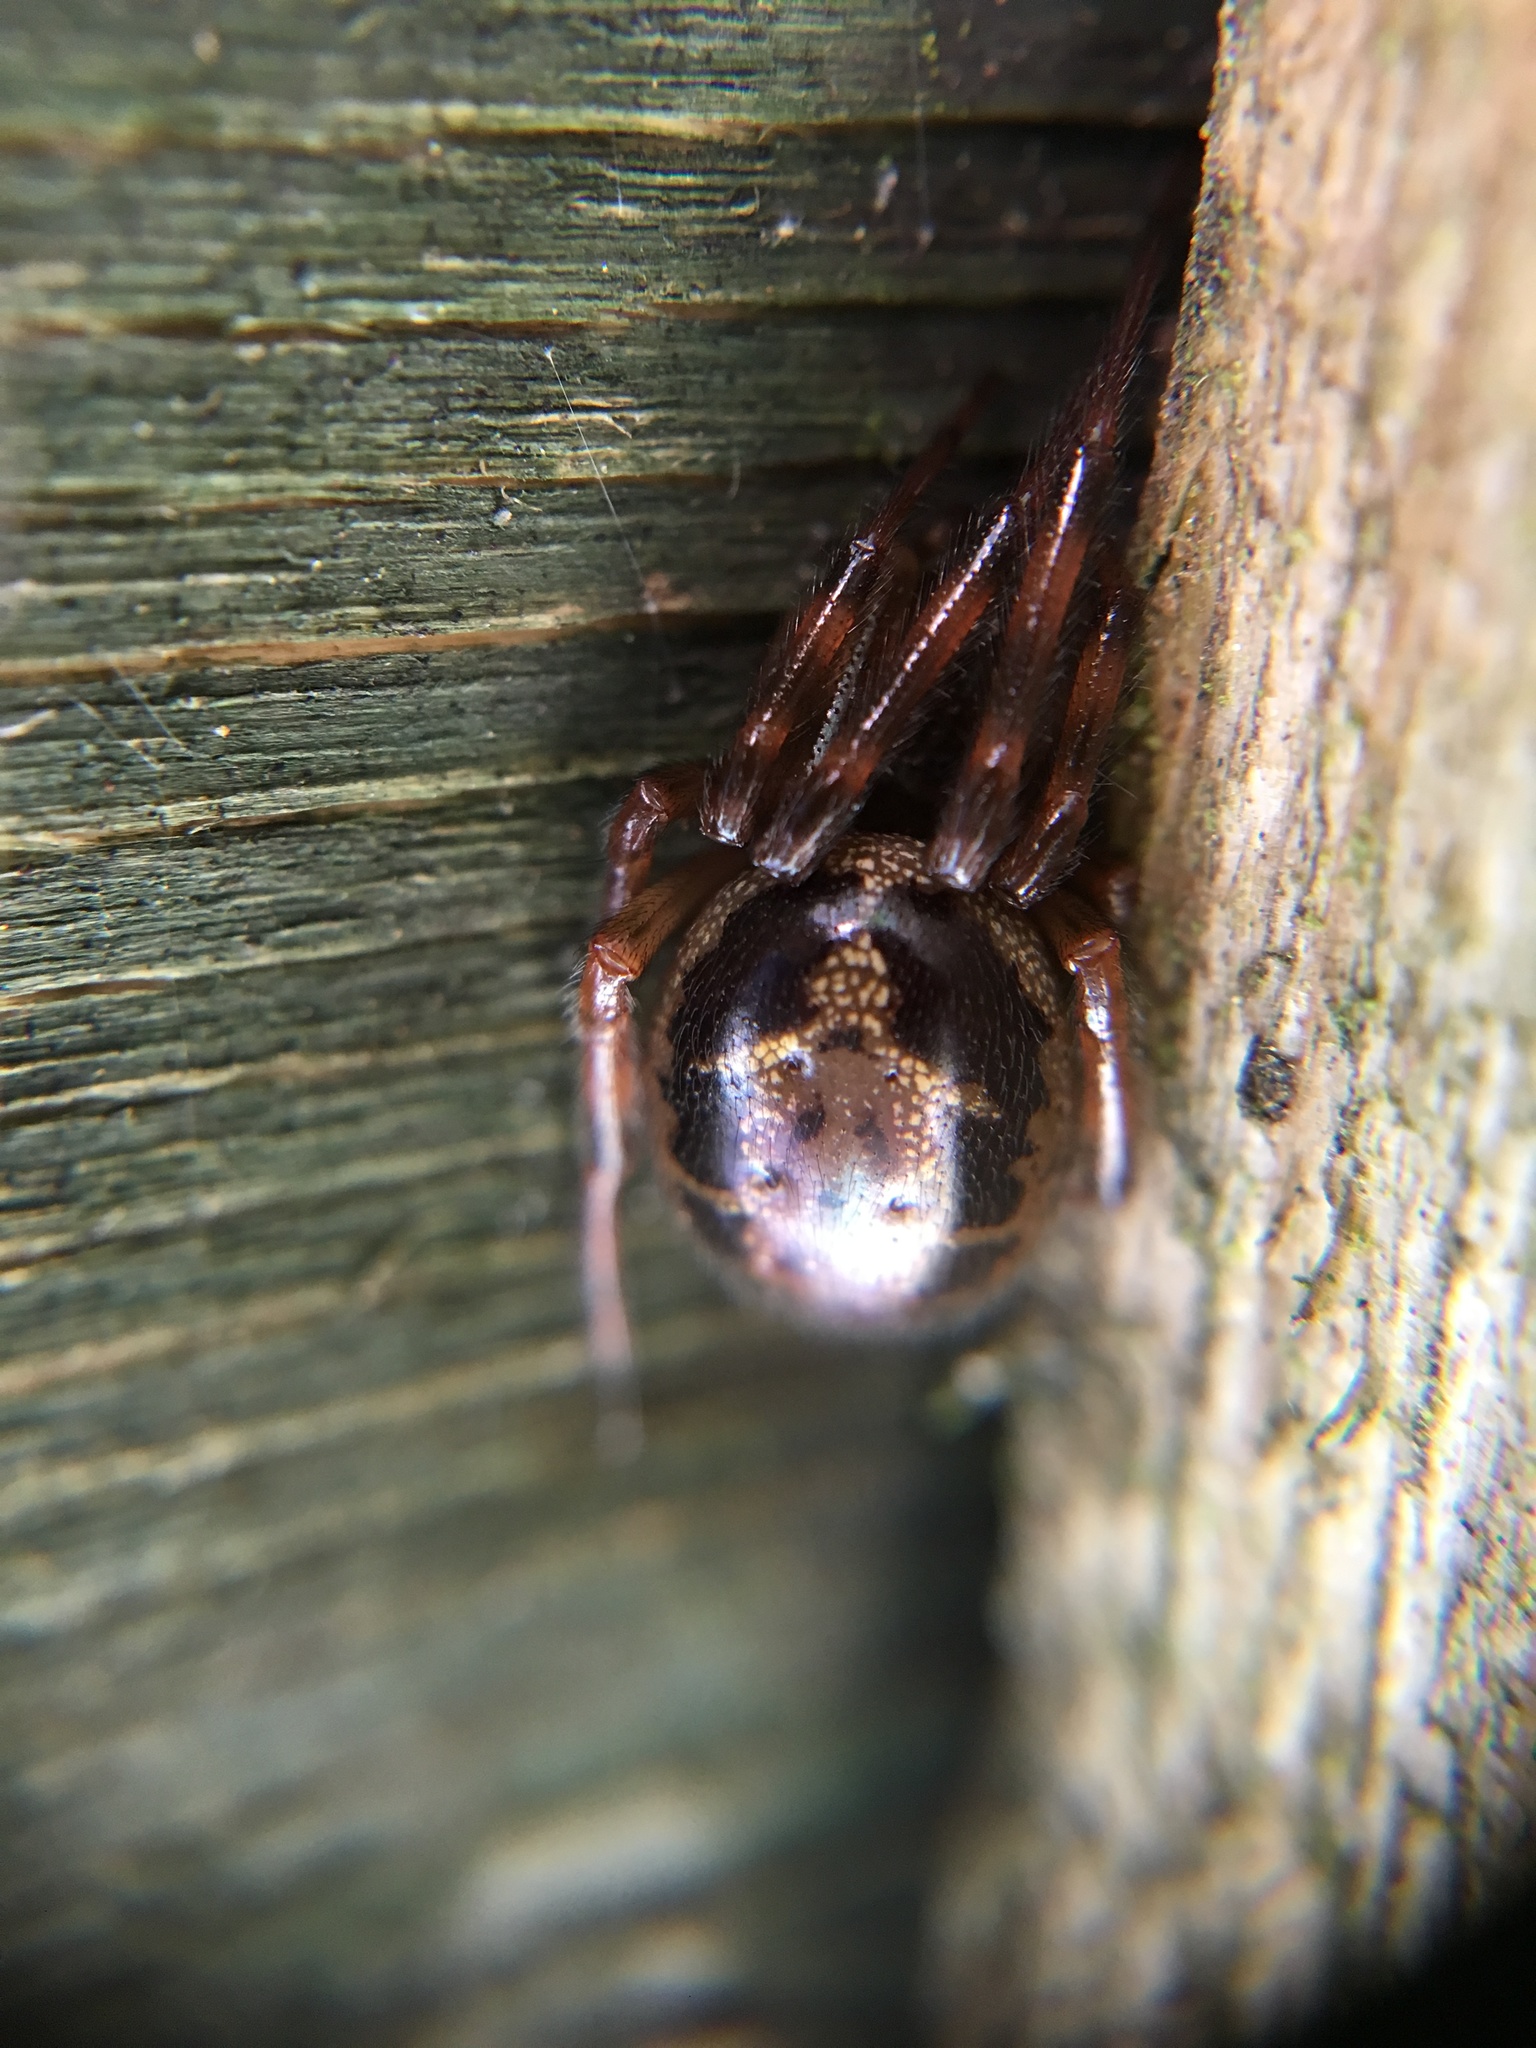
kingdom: Animalia
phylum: Arthropoda
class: Arachnida
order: Araneae
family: Theridiidae
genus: Steatoda
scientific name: Steatoda nobilis
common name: Cobweb weaver
